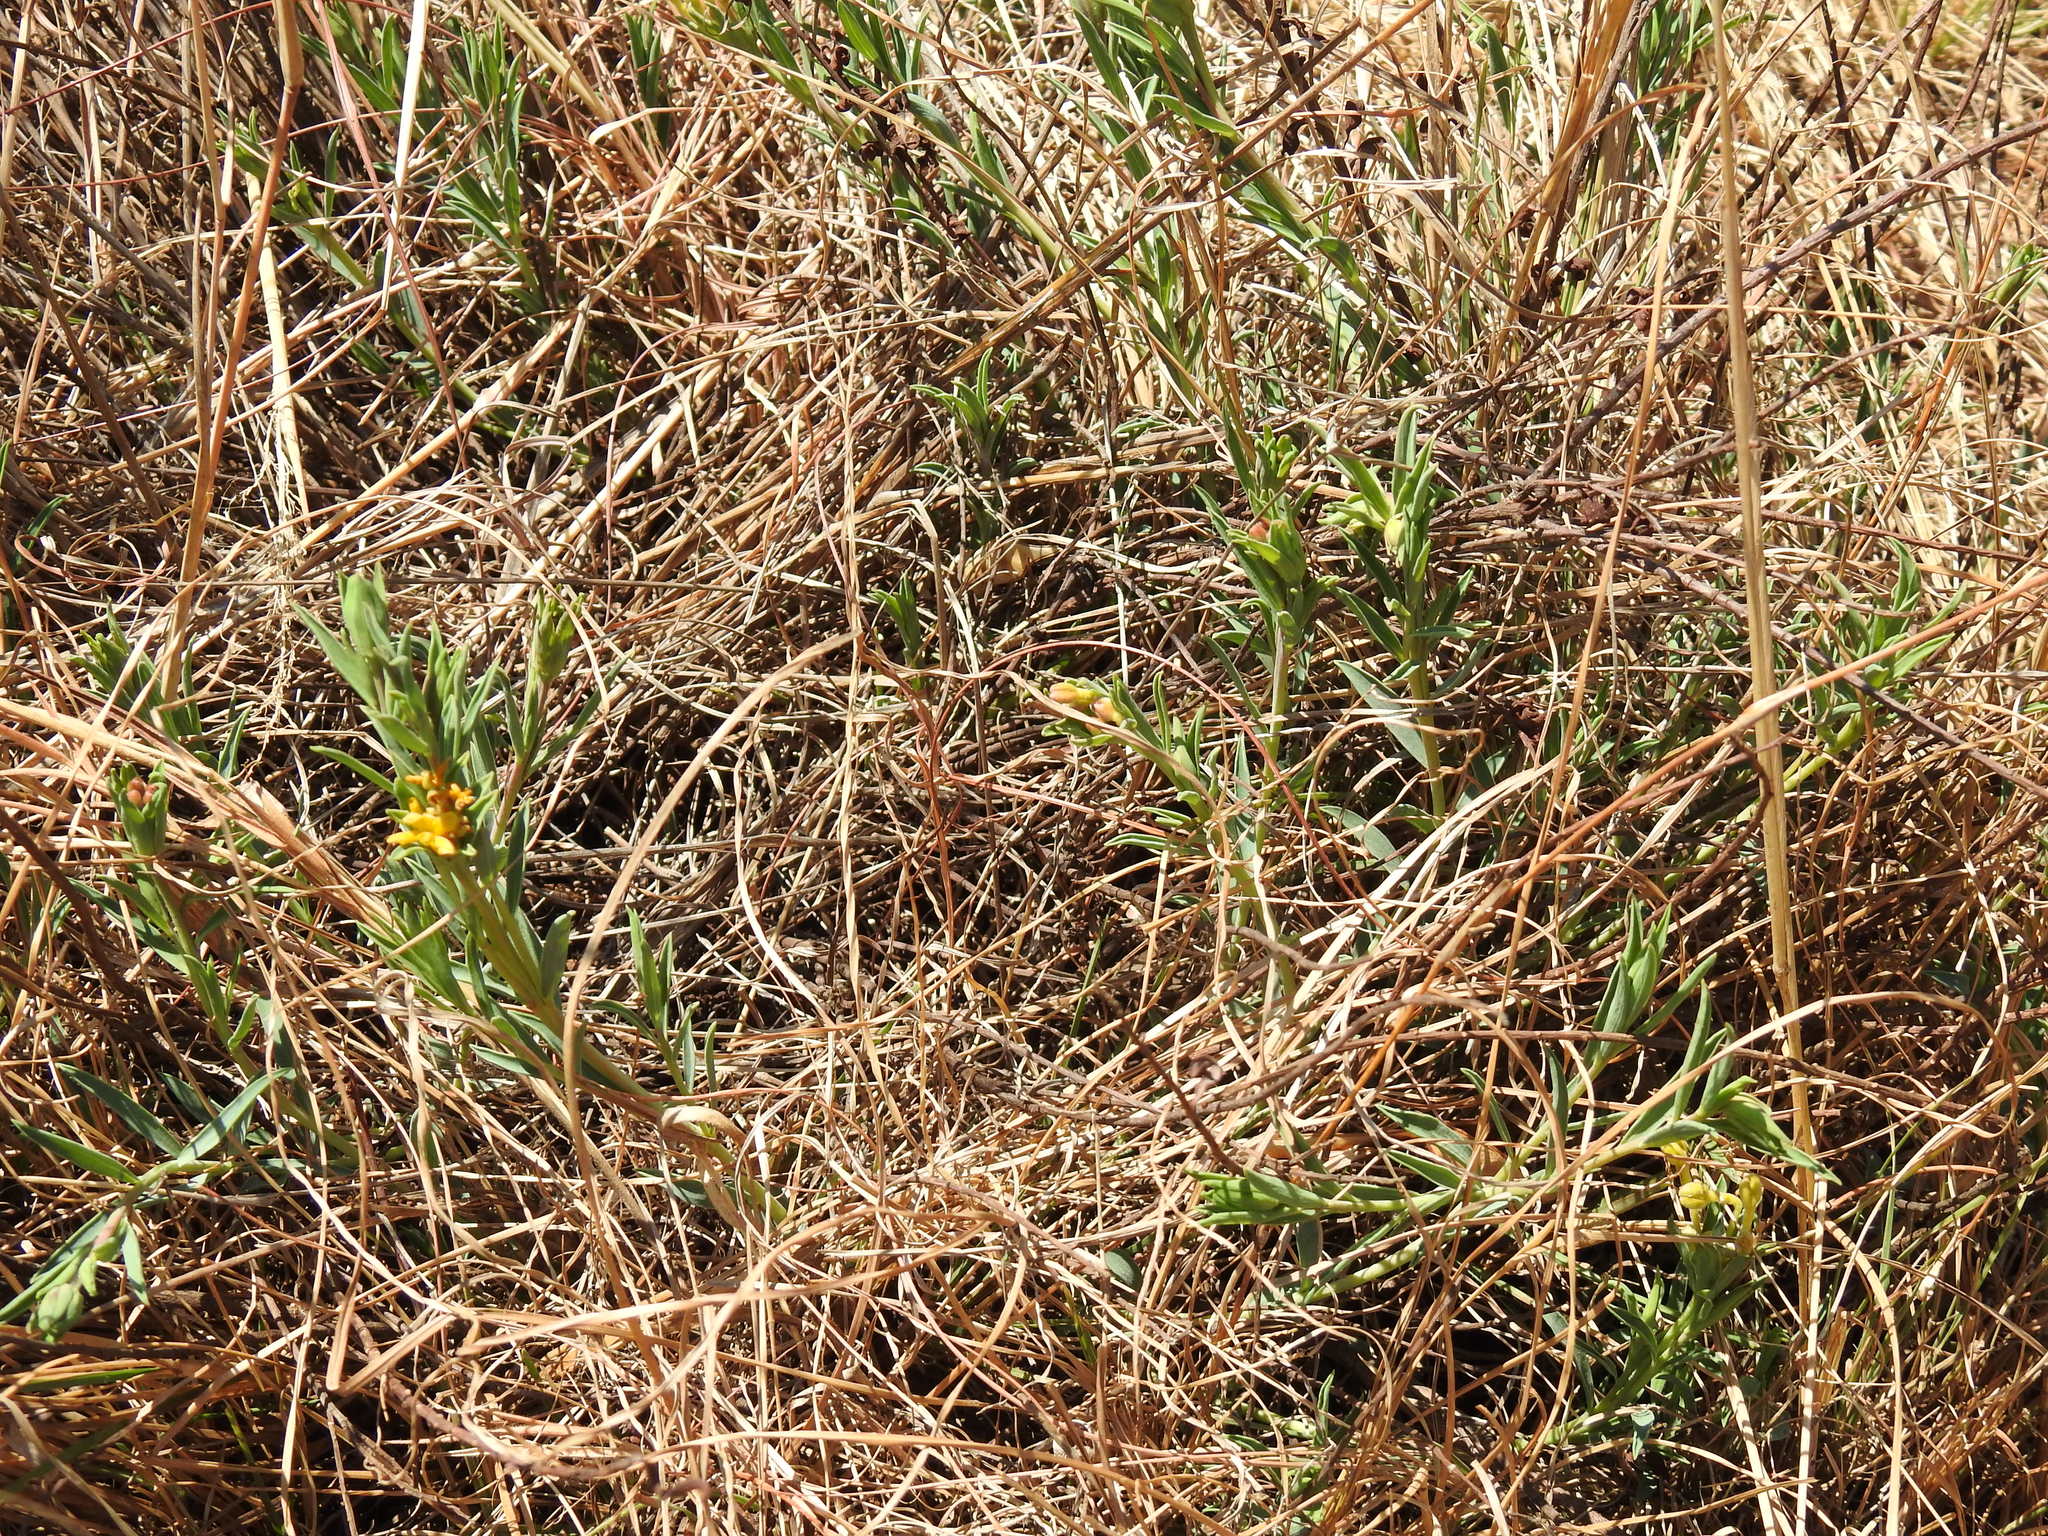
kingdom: Plantae
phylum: Tracheophyta
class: Magnoliopsida
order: Malvales
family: Thymelaeaceae
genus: Gnidia
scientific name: Gnidia capitata
